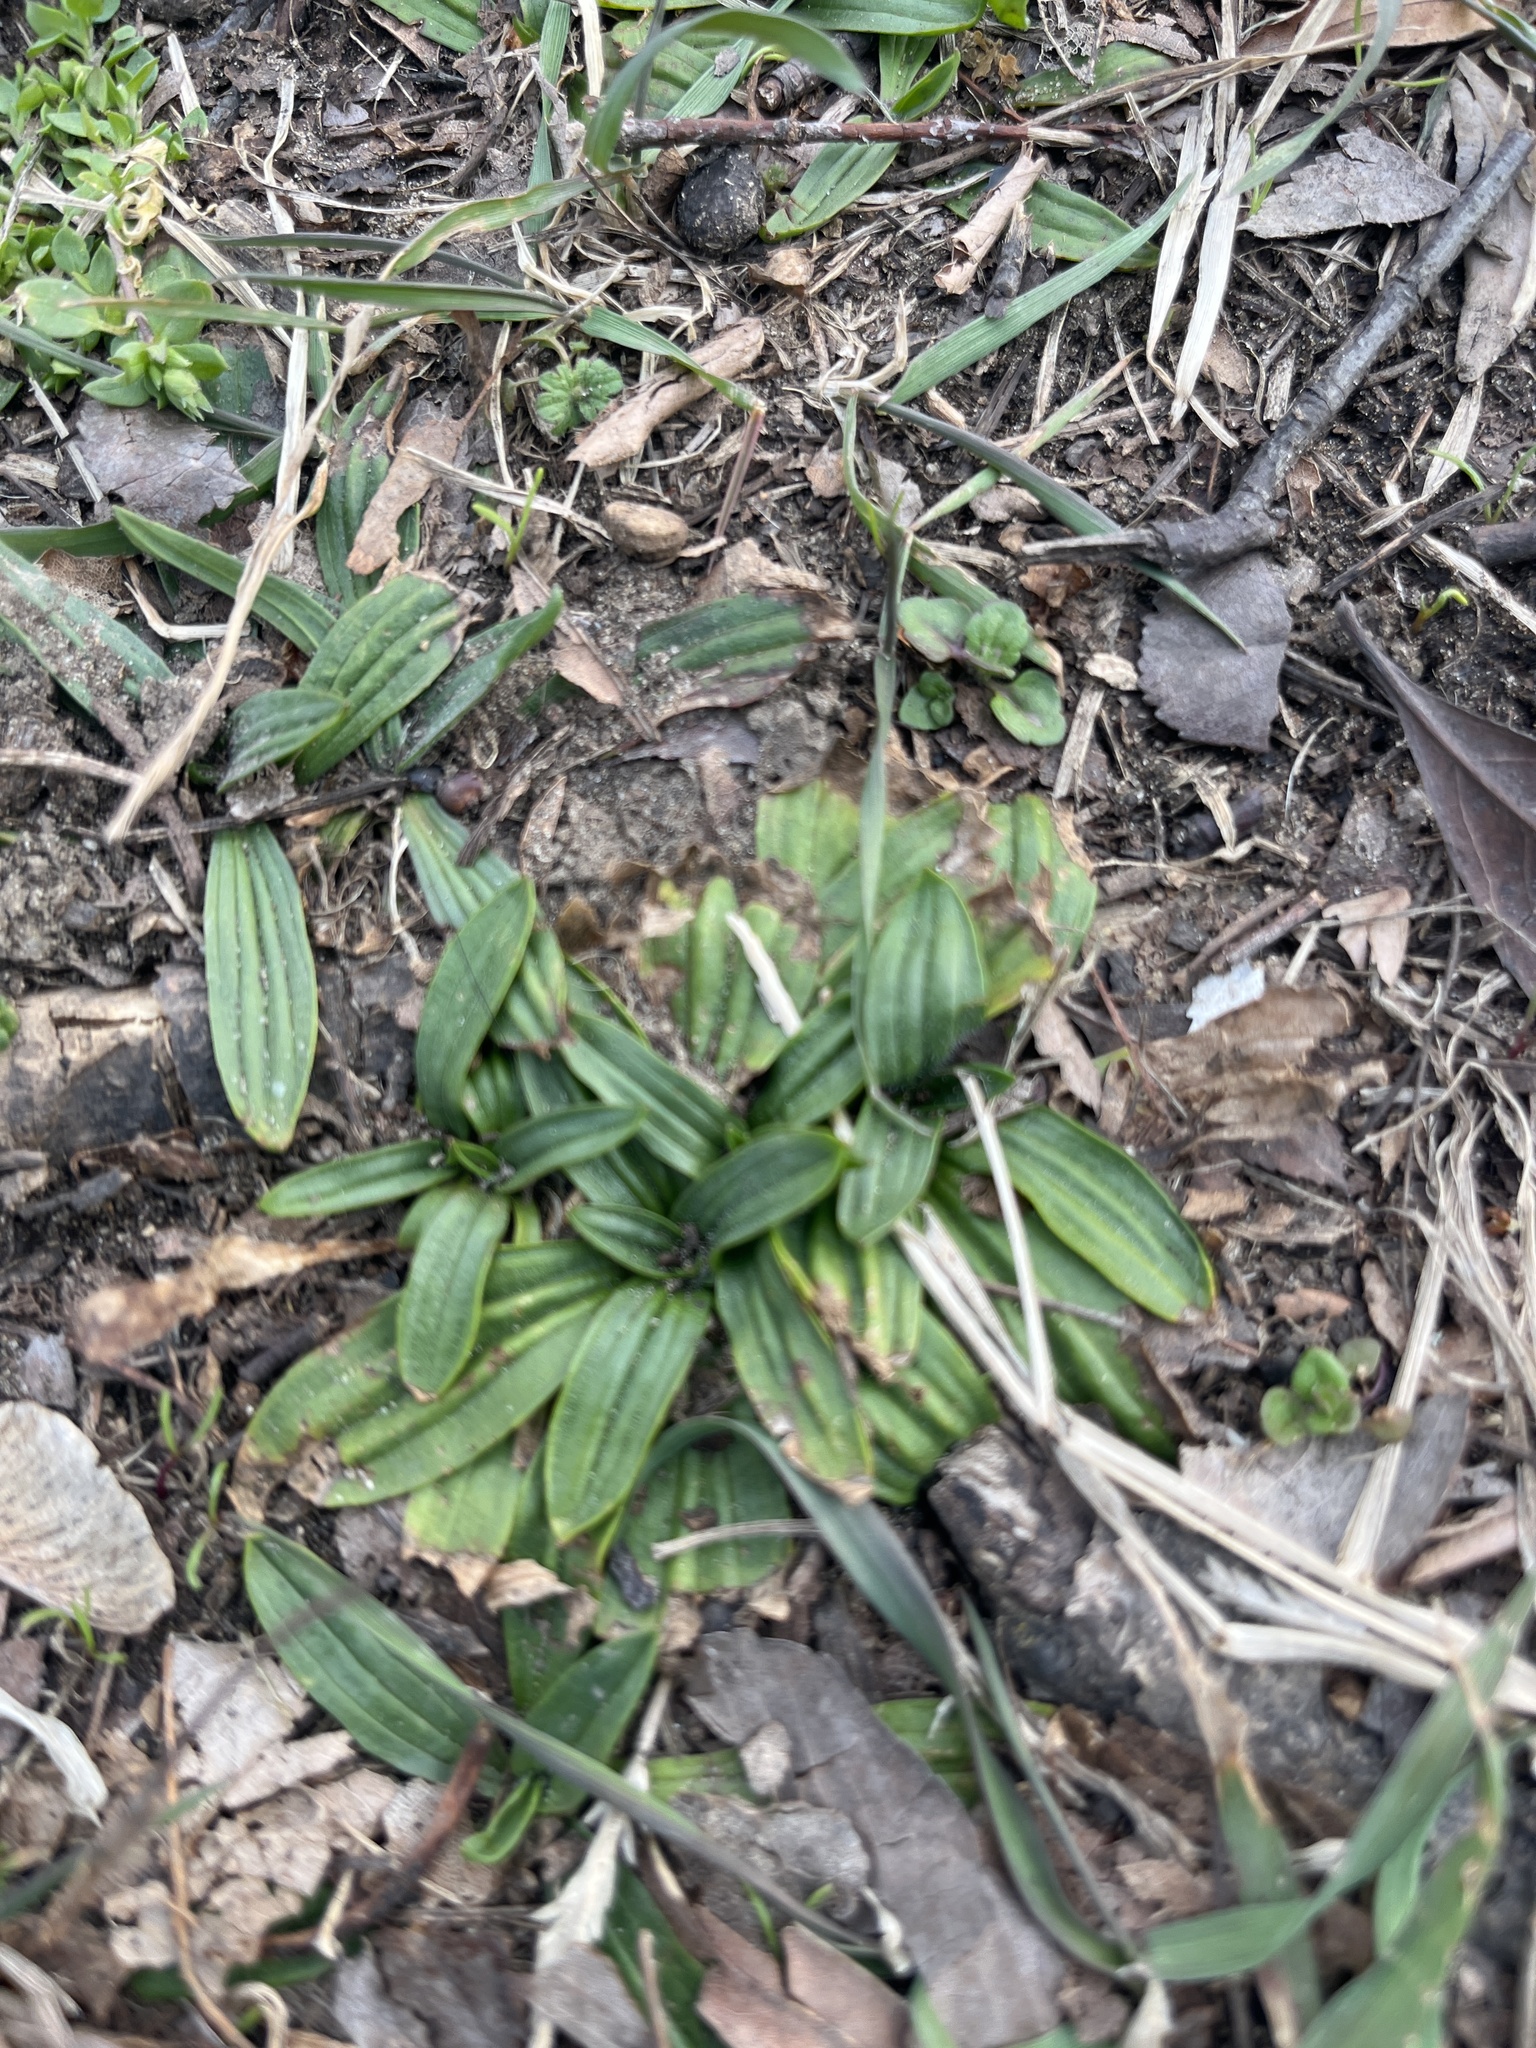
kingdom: Plantae
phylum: Tracheophyta
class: Magnoliopsida
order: Lamiales
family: Plantaginaceae
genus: Plantago
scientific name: Plantago lanceolata
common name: Ribwort plantain
